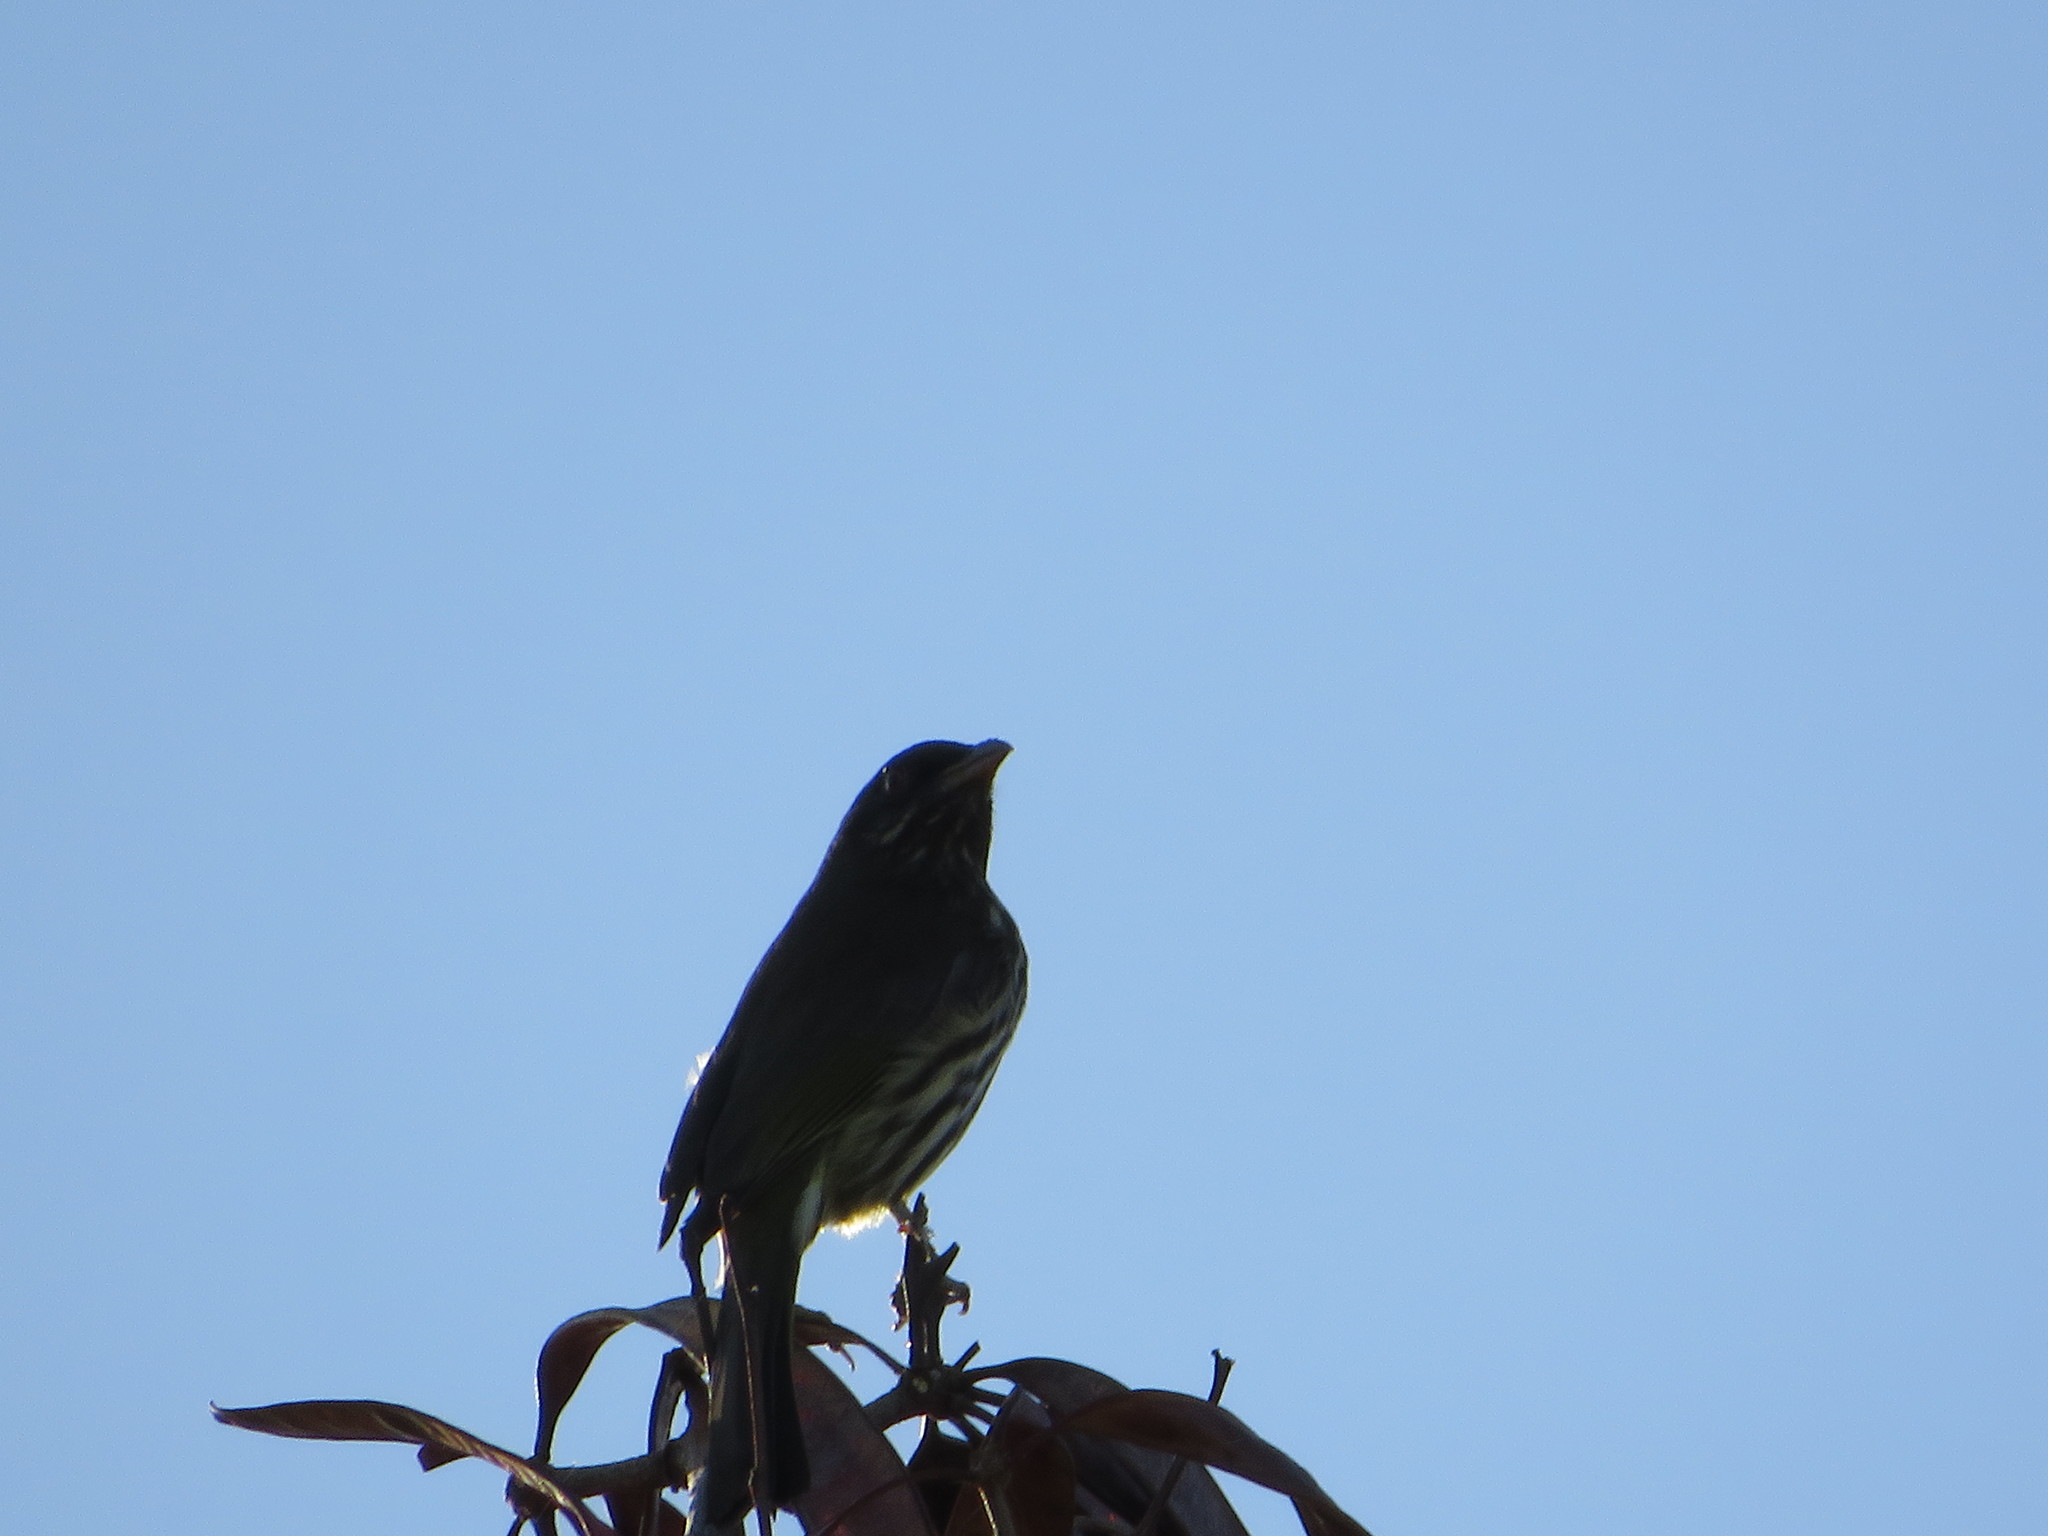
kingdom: Animalia
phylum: Chordata
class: Aves
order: Passeriformes
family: Dulidae
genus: Dulus
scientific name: Dulus dominicus
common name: Palmchat
